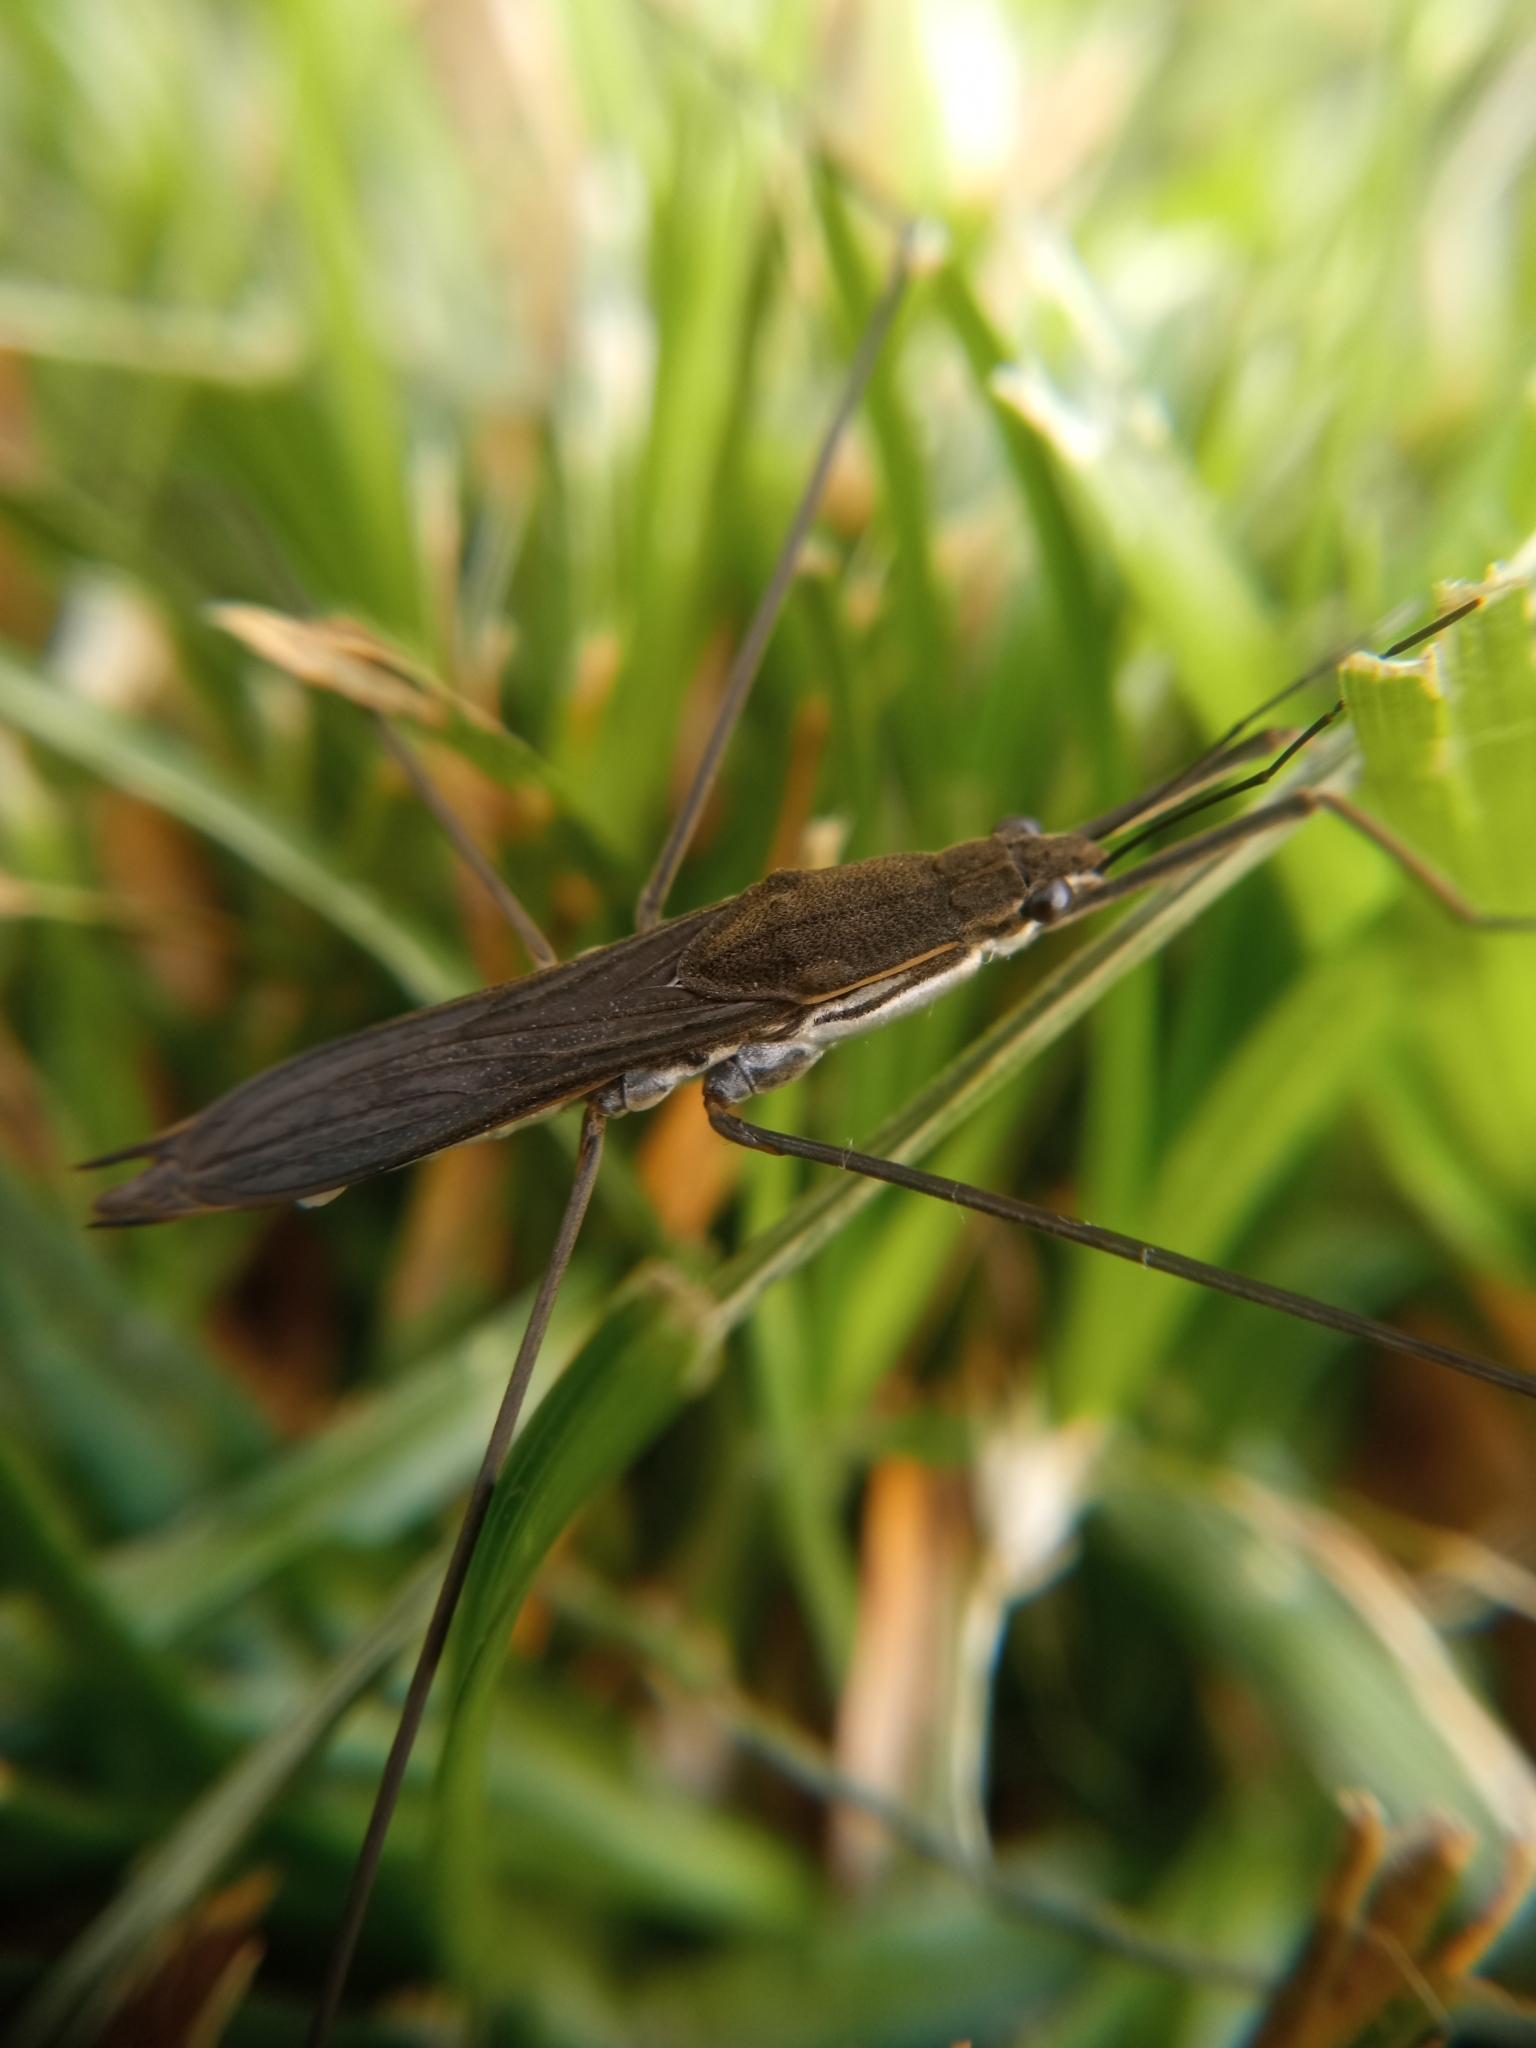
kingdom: Animalia
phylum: Arthropoda
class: Insecta
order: Hemiptera
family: Gerridae
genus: Aquarius
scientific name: Aquarius paludum
